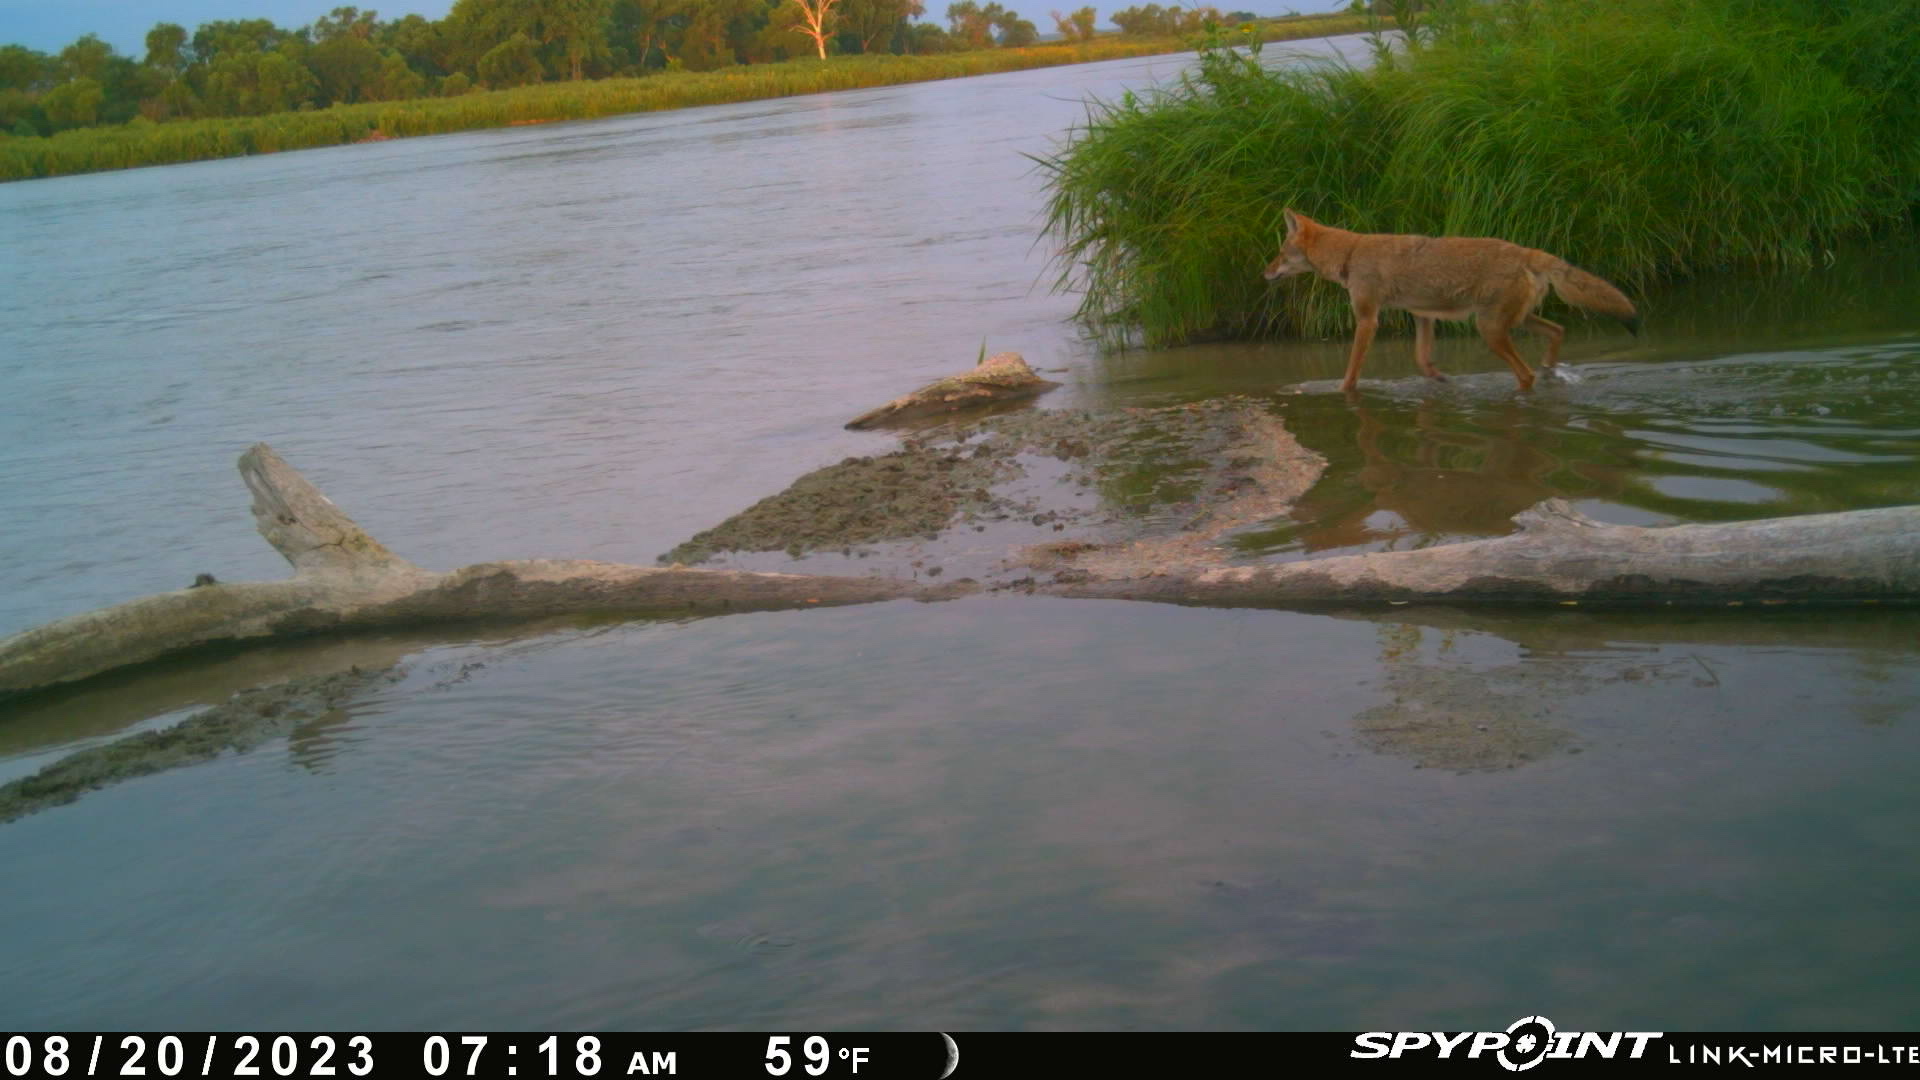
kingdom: Animalia
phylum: Chordata
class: Mammalia
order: Carnivora
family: Canidae
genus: Canis
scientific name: Canis latrans
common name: Coyote
